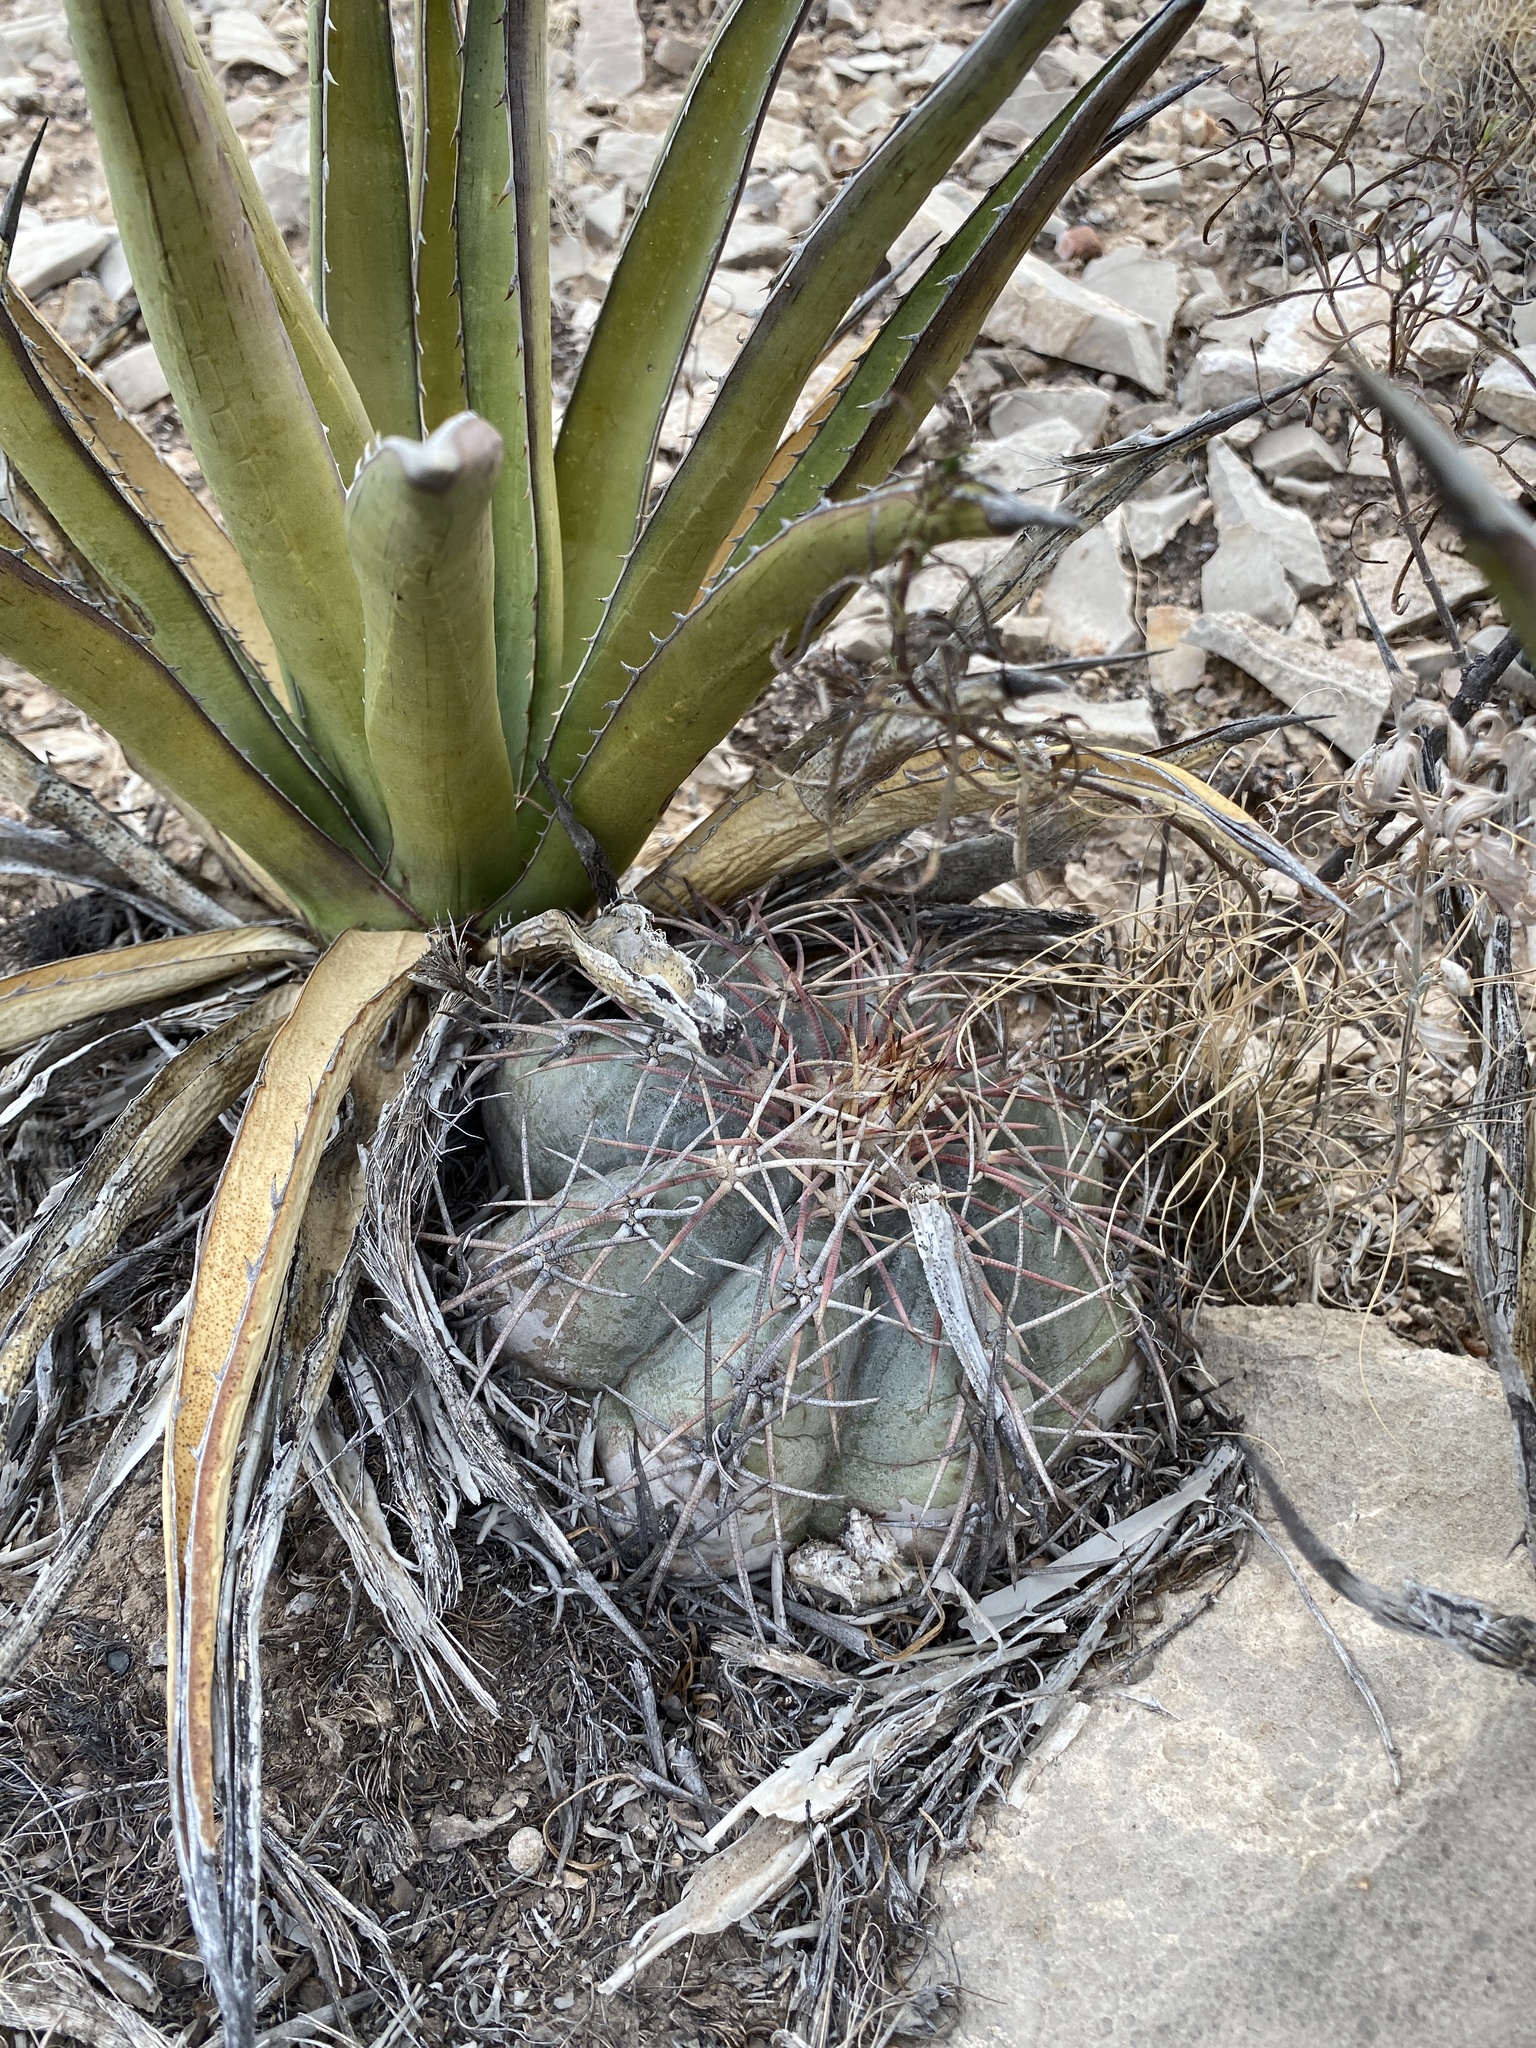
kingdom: Plantae
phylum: Tracheophyta
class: Magnoliopsida
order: Caryophyllales
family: Cactaceae
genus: Echinocactus
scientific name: Echinocactus horizonthalonius
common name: Devilshead
